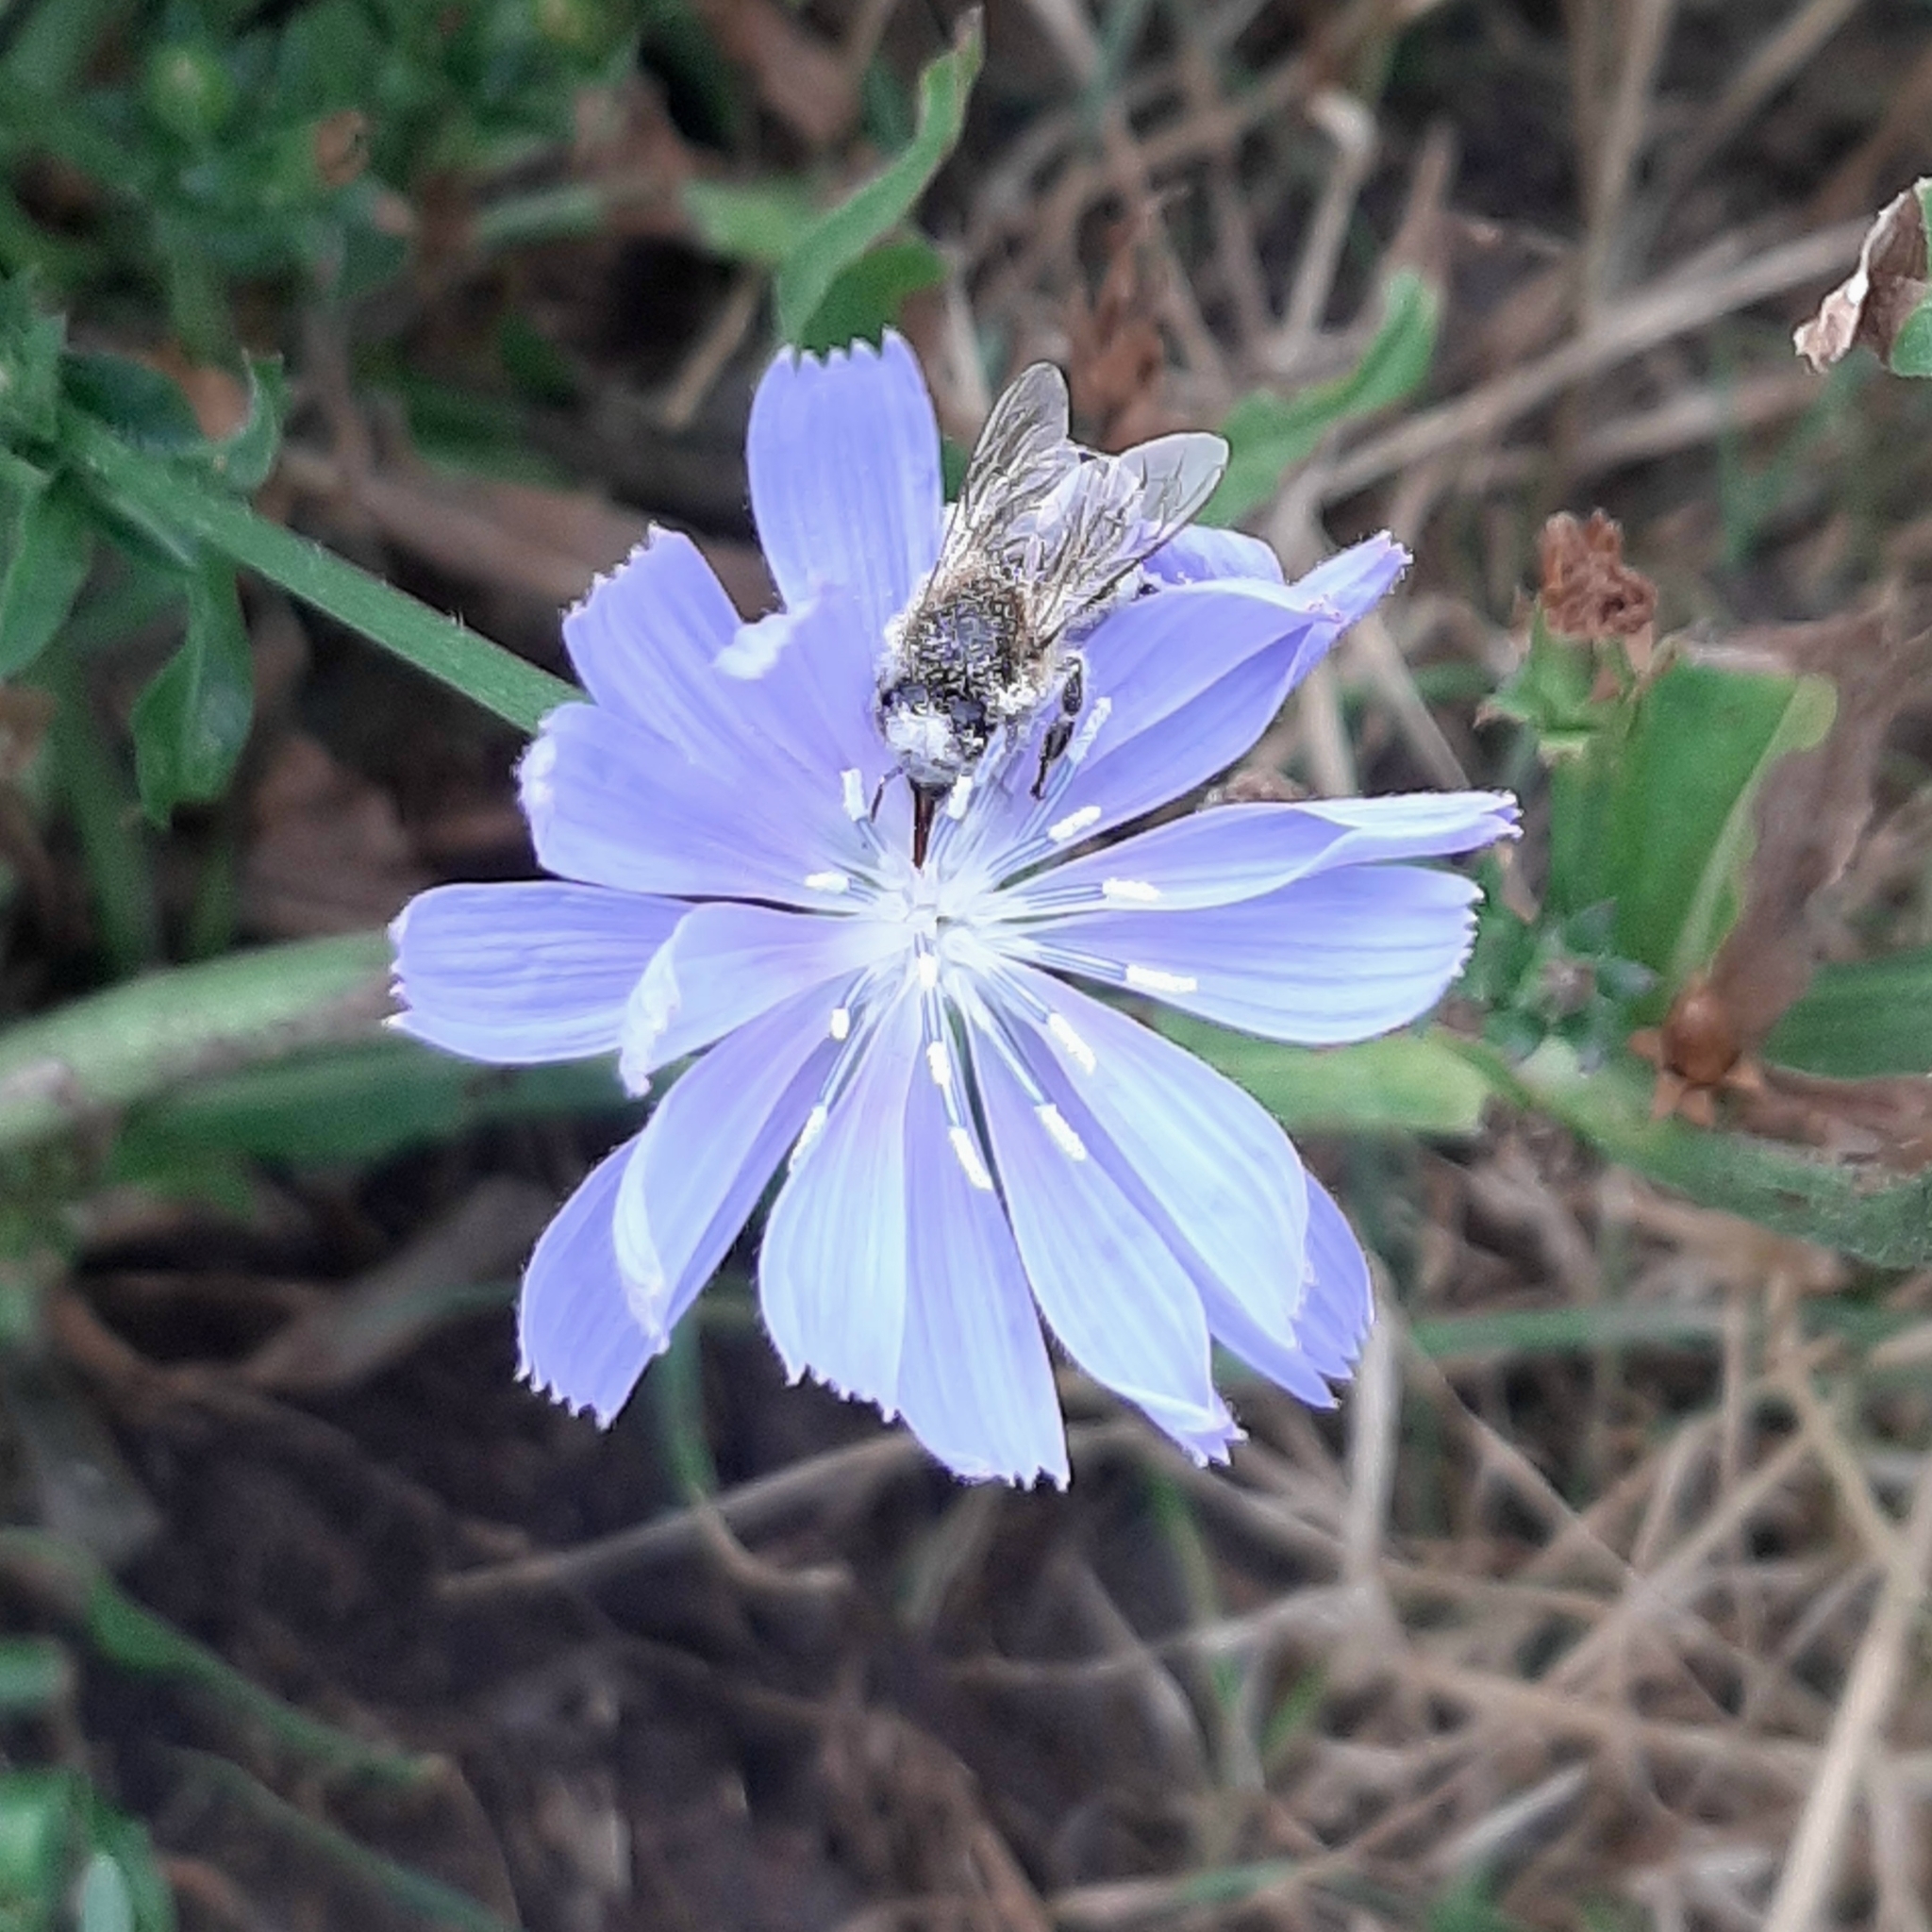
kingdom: Animalia
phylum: Arthropoda
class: Insecta
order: Hymenoptera
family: Apidae
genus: Apis
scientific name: Apis mellifera
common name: Honey bee
